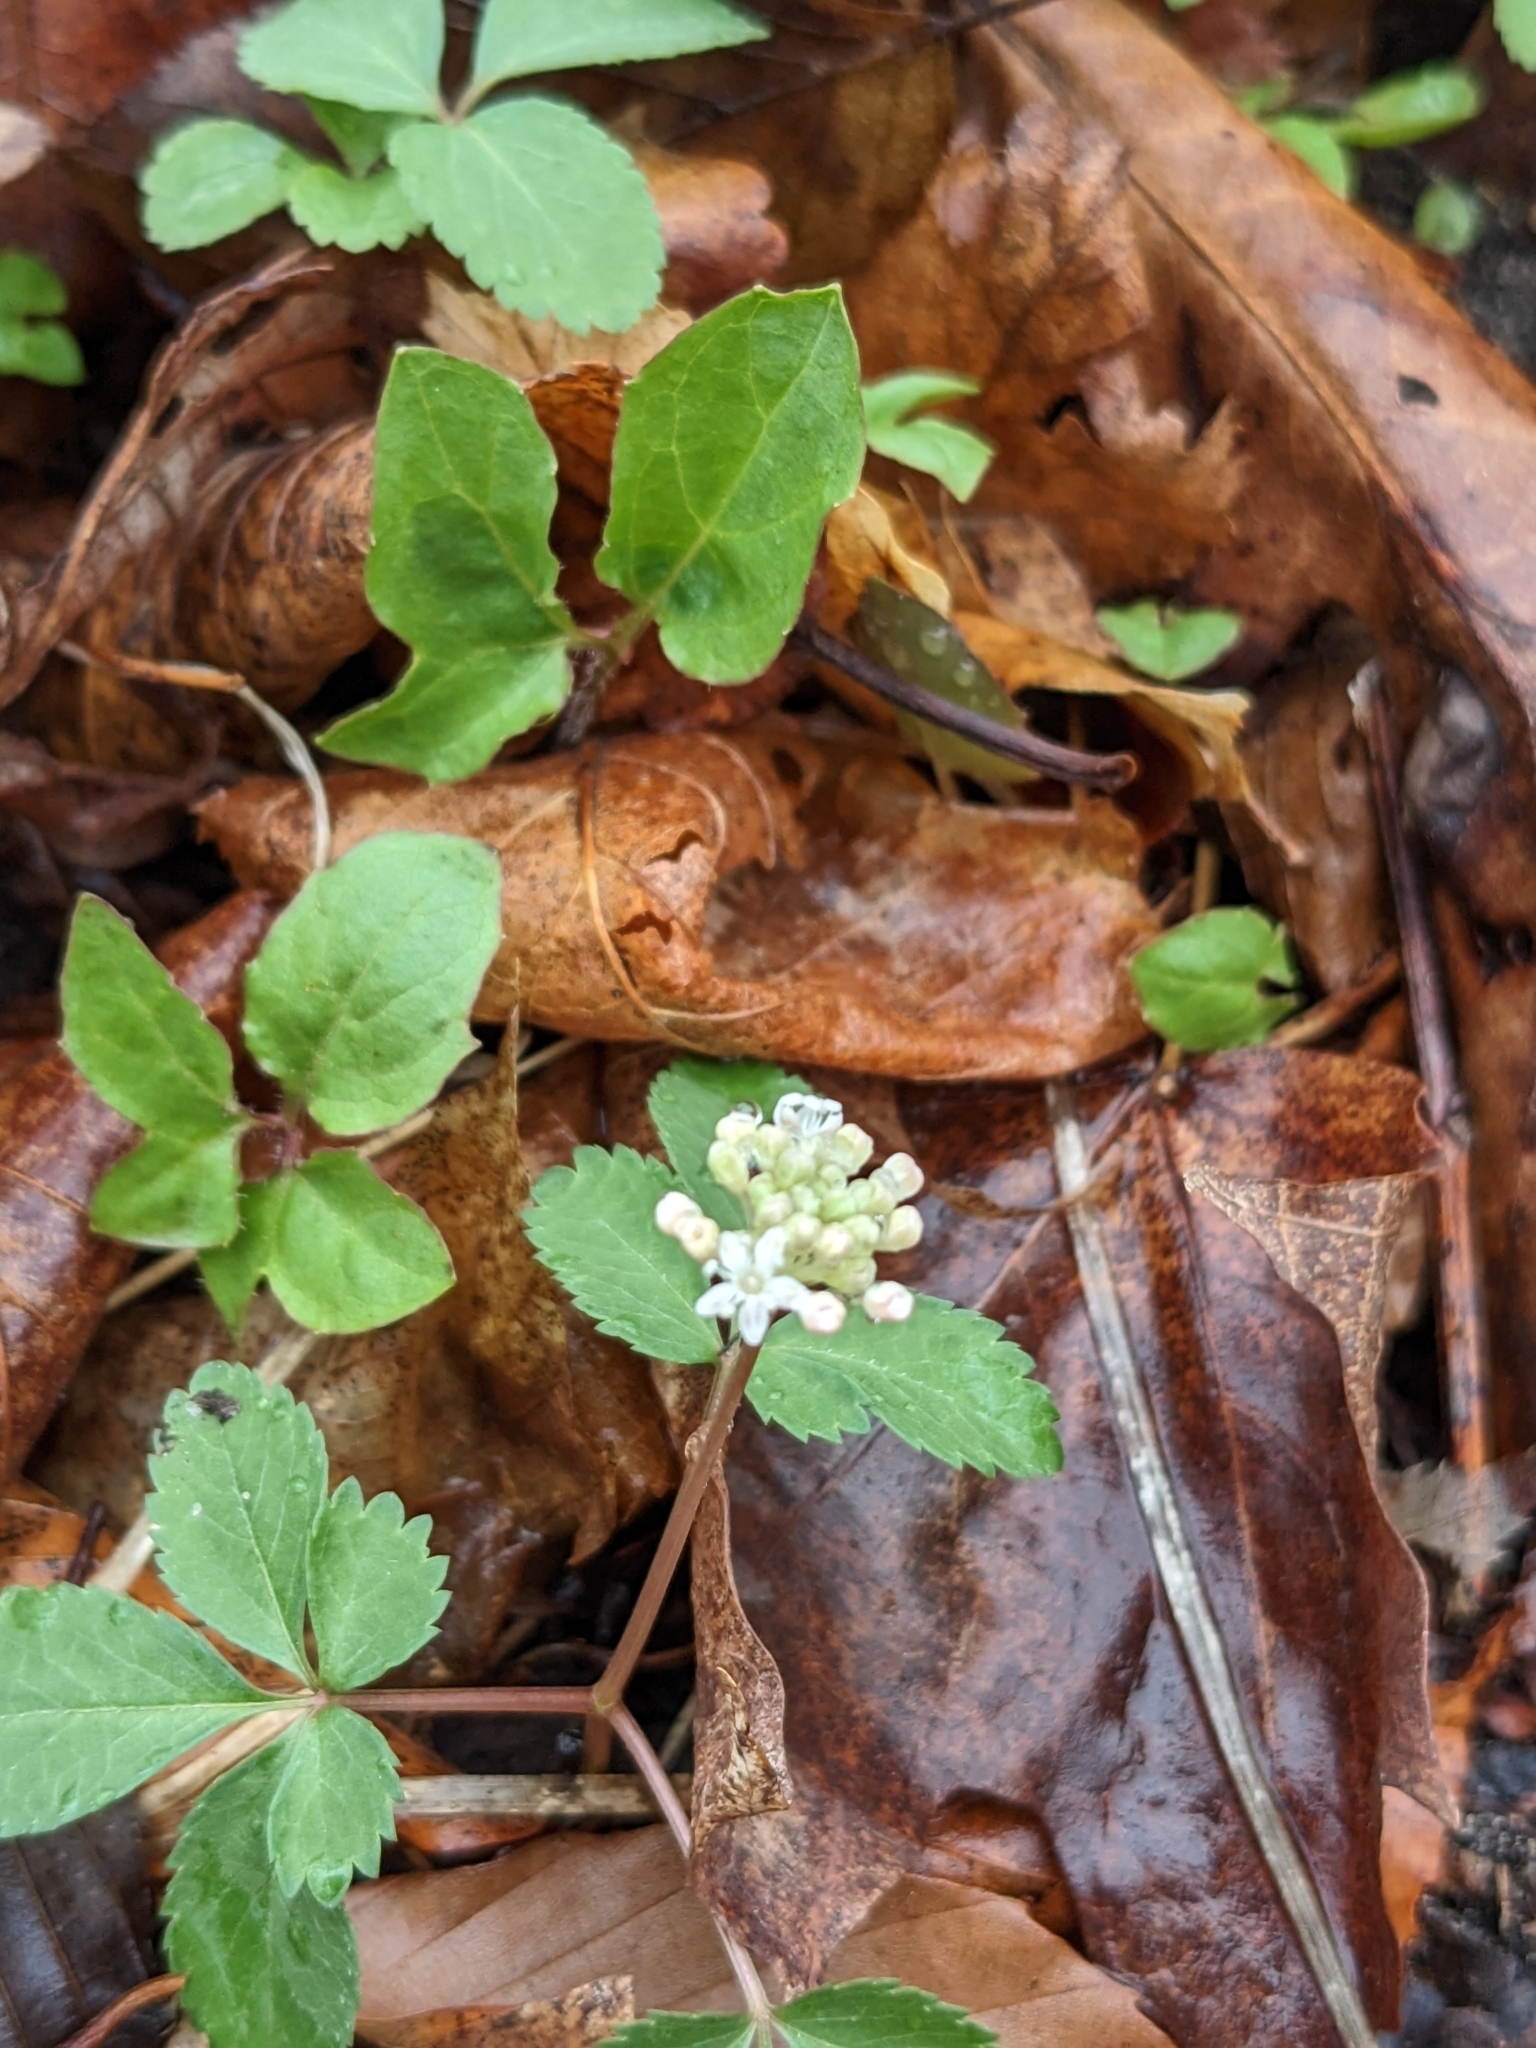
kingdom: Plantae
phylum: Tracheophyta
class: Magnoliopsida
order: Apiales
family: Araliaceae
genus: Panax
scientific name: Panax trifolius
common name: Dwarf ginseng
